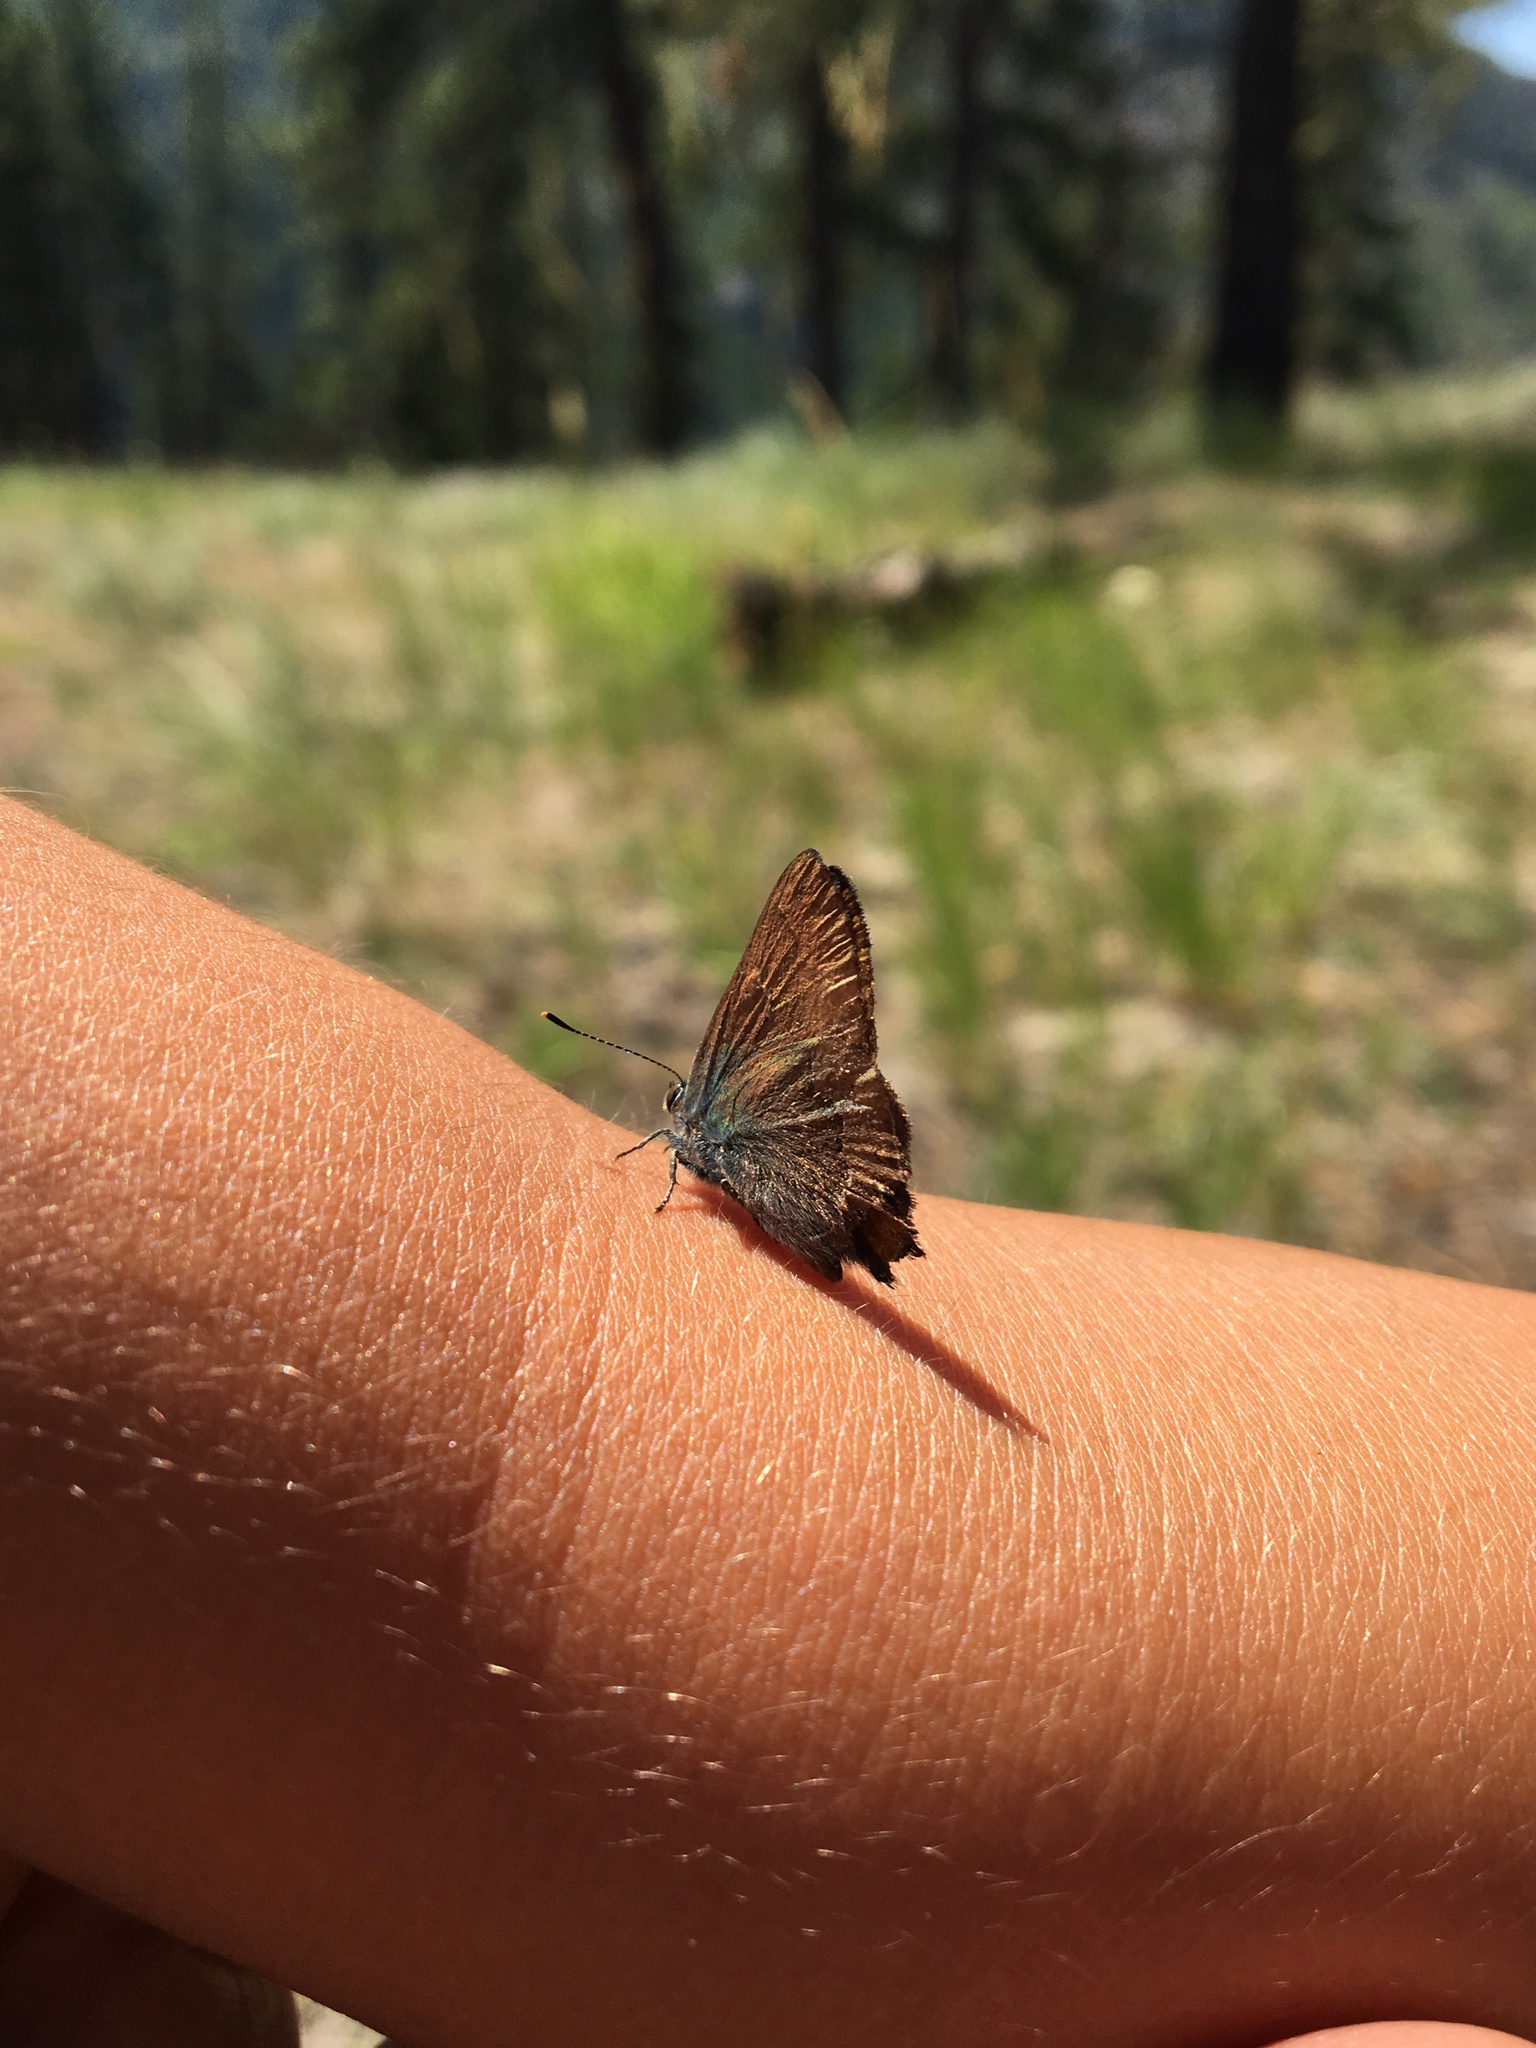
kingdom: Animalia
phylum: Arthropoda
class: Insecta
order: Lepidoptera
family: Lycaenidae
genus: Strymon
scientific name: Strymon saepium
